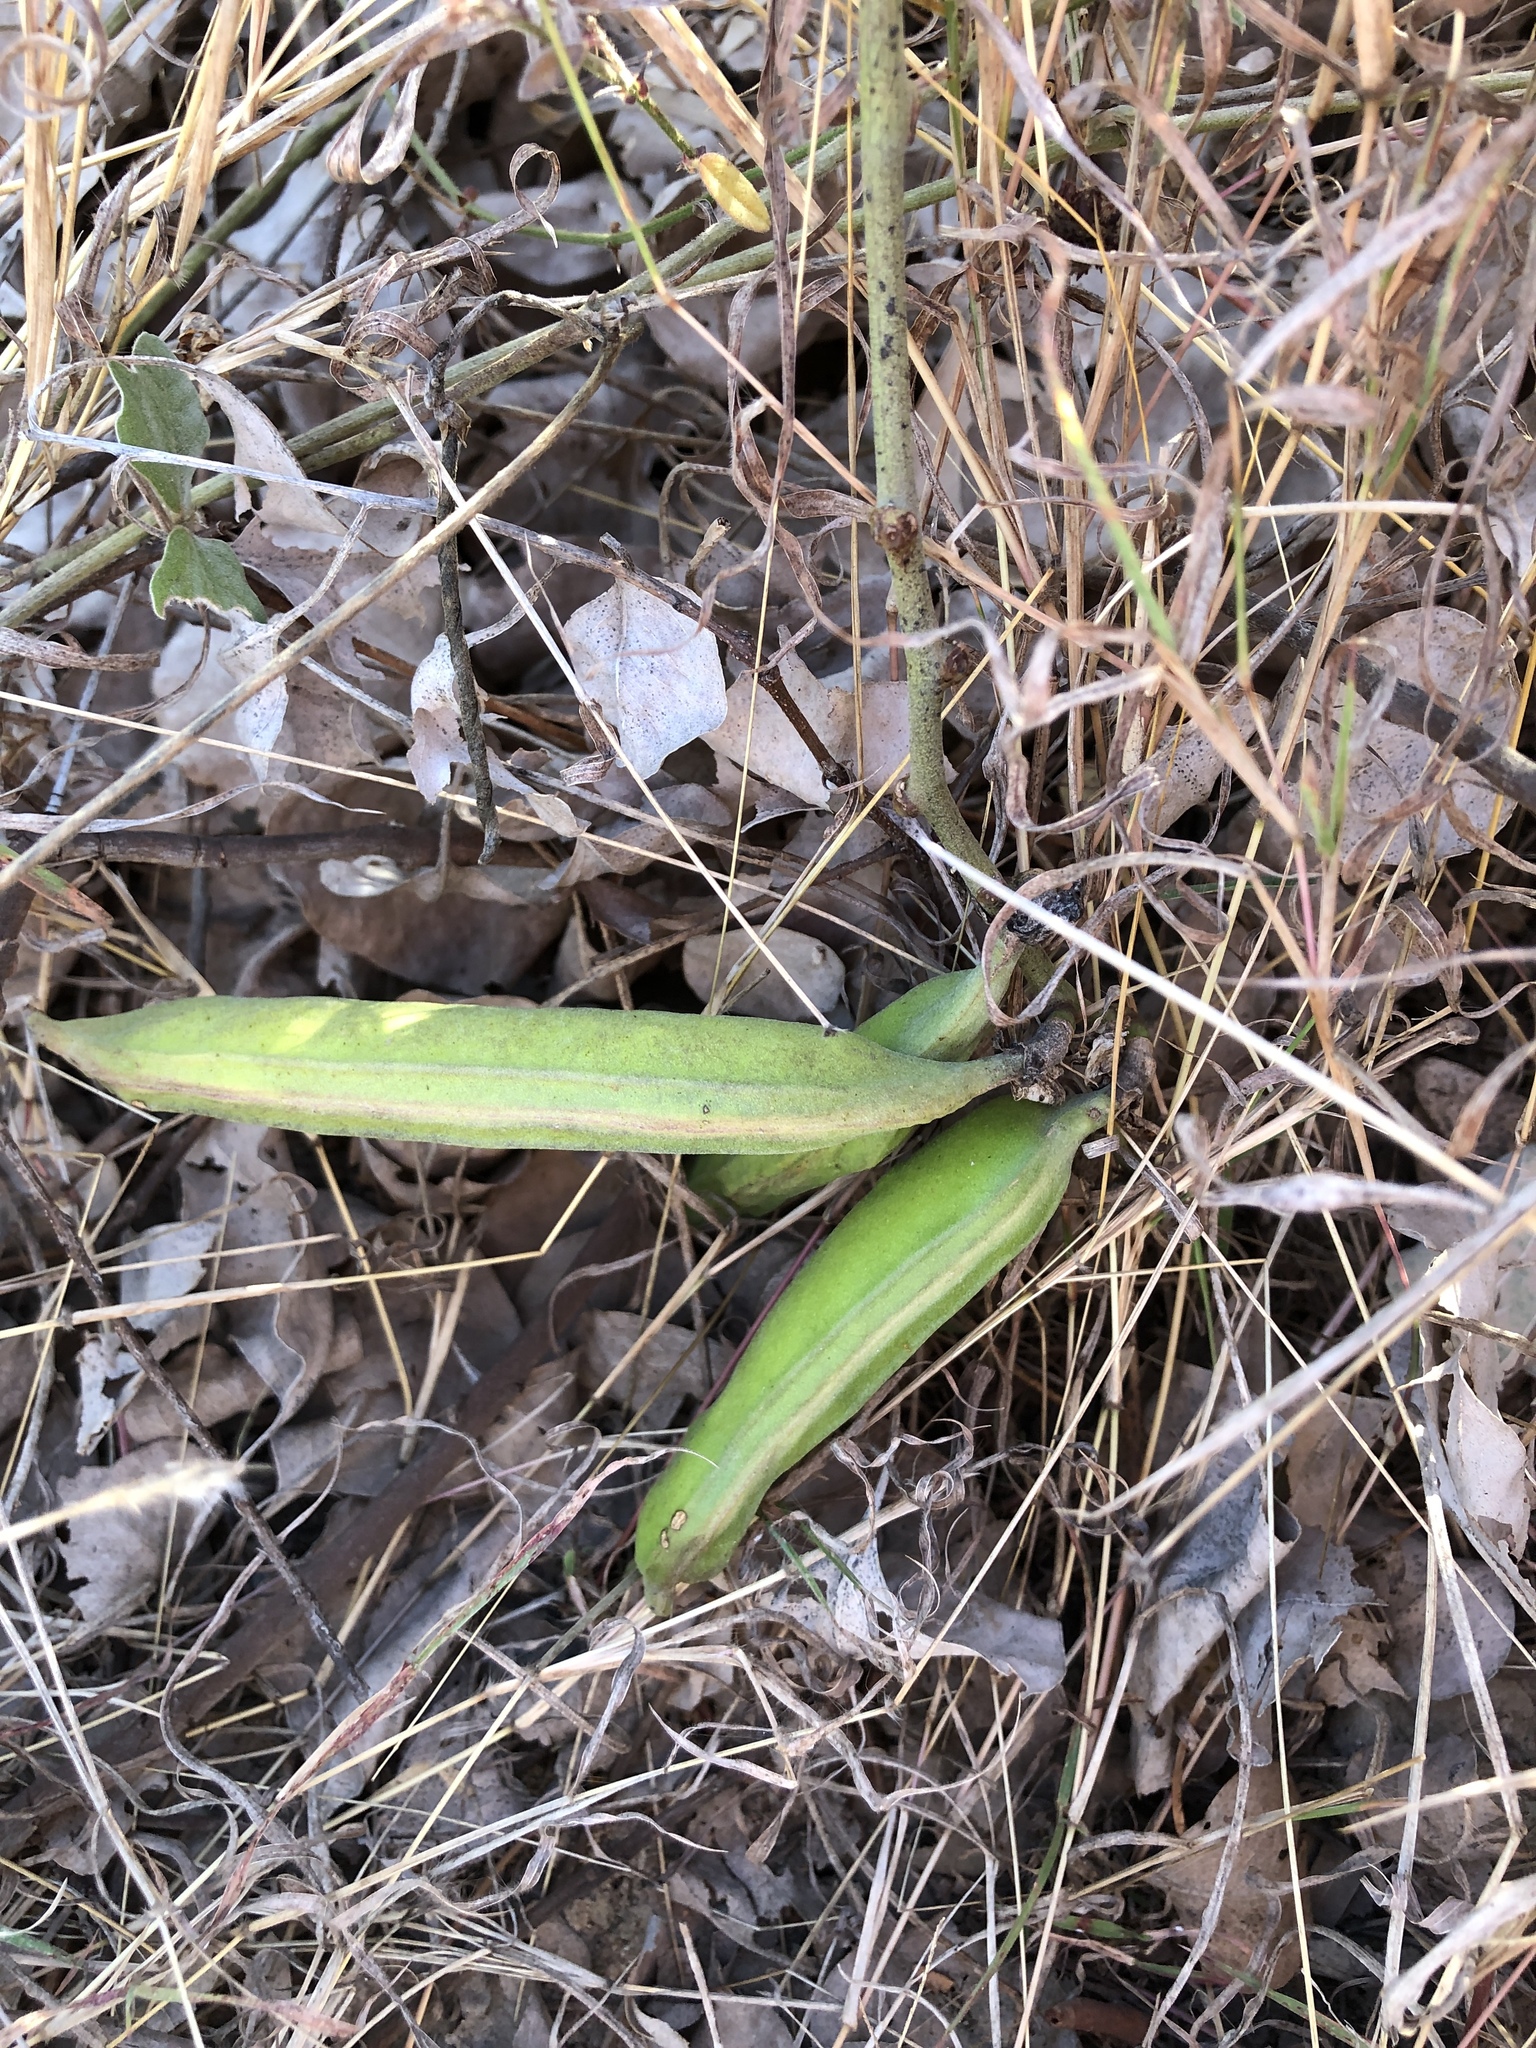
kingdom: Plantae
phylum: Tracheophyta
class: Magnoliopsida
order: Fabales
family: Fabaceae
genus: Canavalia
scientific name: Canavalia rosea
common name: Beach-bean
